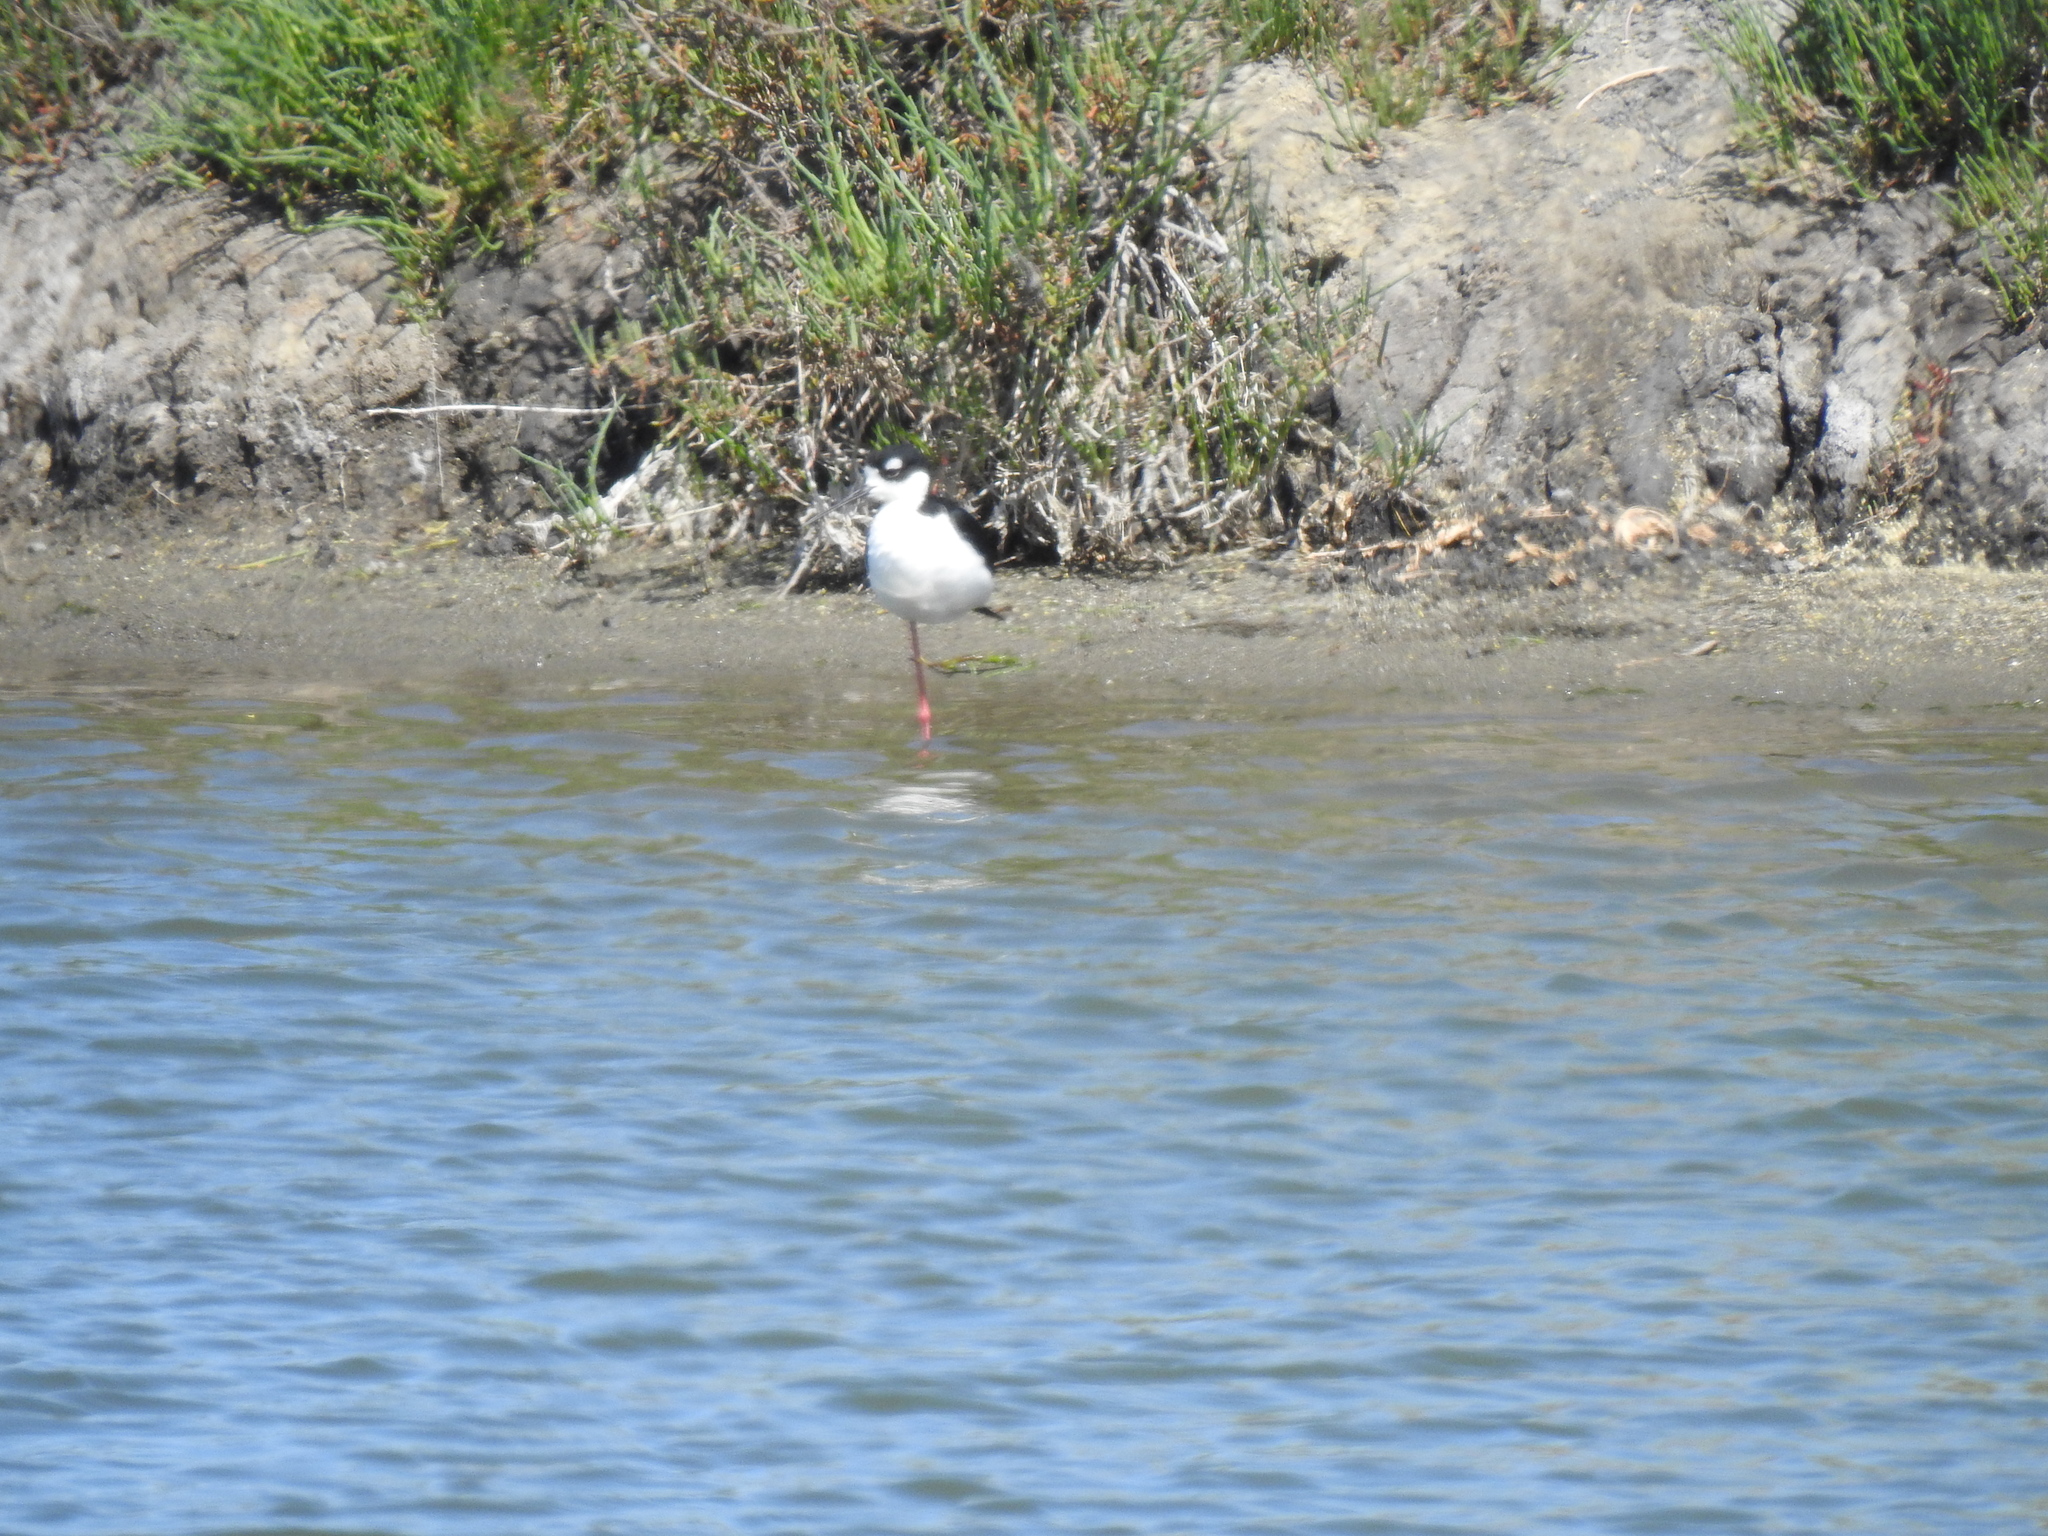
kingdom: Animalia
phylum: Chordata
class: Aves
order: Charadriiformes
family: Recurvirostridae
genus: Himantopus
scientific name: Himantopus mexicanus
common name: Black-necked stilt
